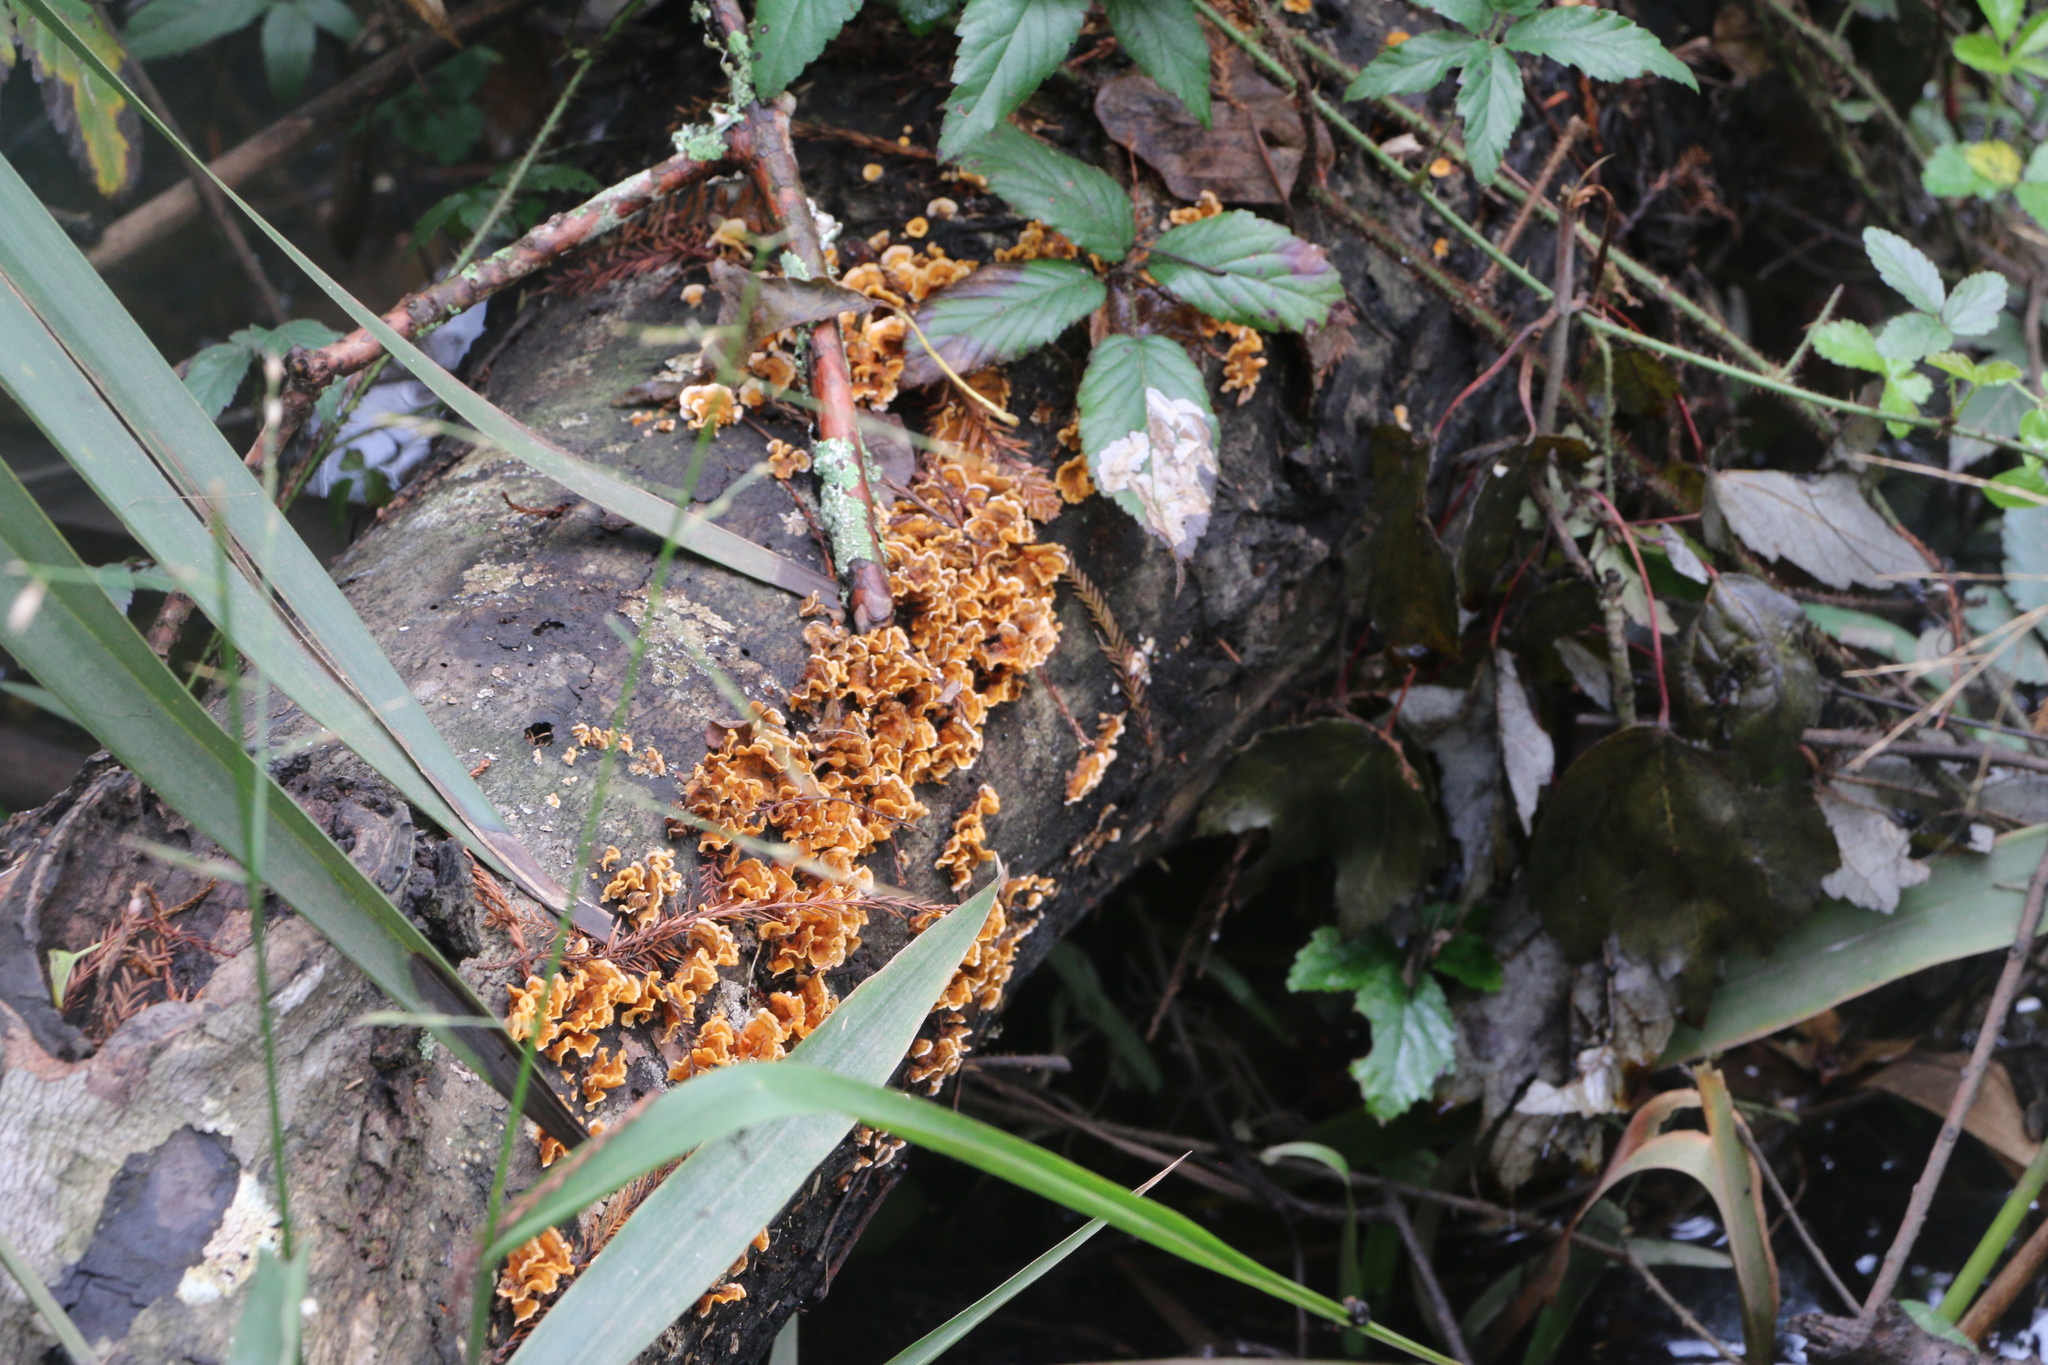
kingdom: Fungi
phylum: Basidiomycota
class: Agaricomycetes
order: Russulales
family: Stereaceae
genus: Stereum
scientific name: Stereum complicatum
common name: Crowded parchment
